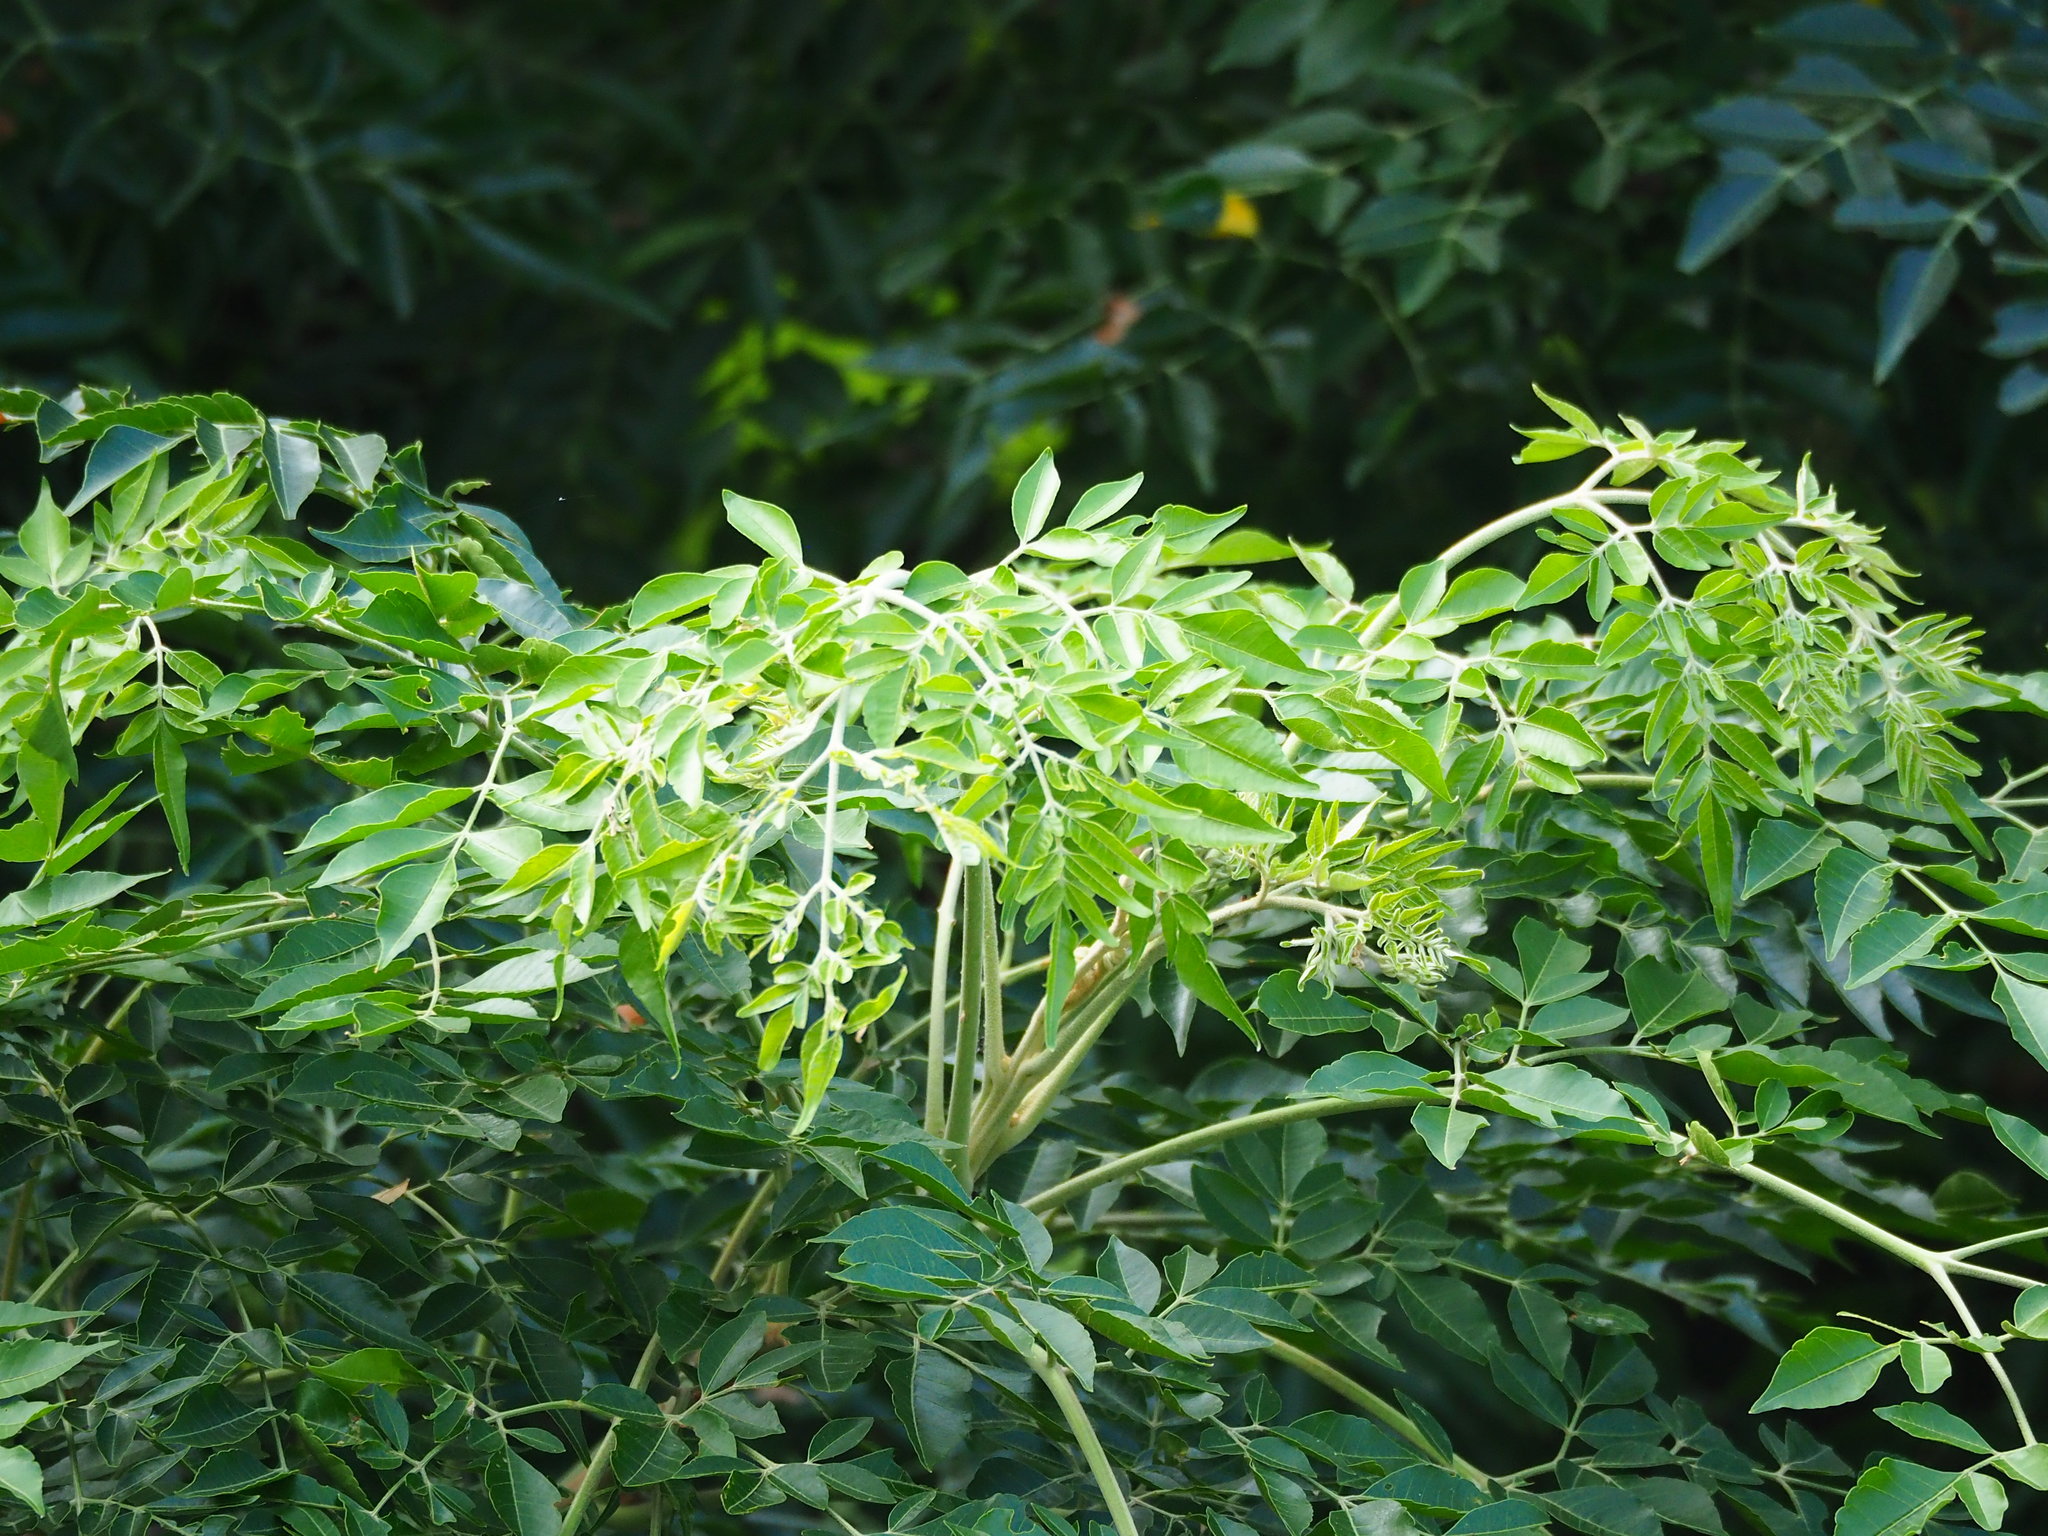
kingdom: Plantae
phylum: Tracheophyta
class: Magnoliopsida
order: Sapindales
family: Meliaceae
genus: Melia
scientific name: Melia azedarach
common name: Chinaberrytree
